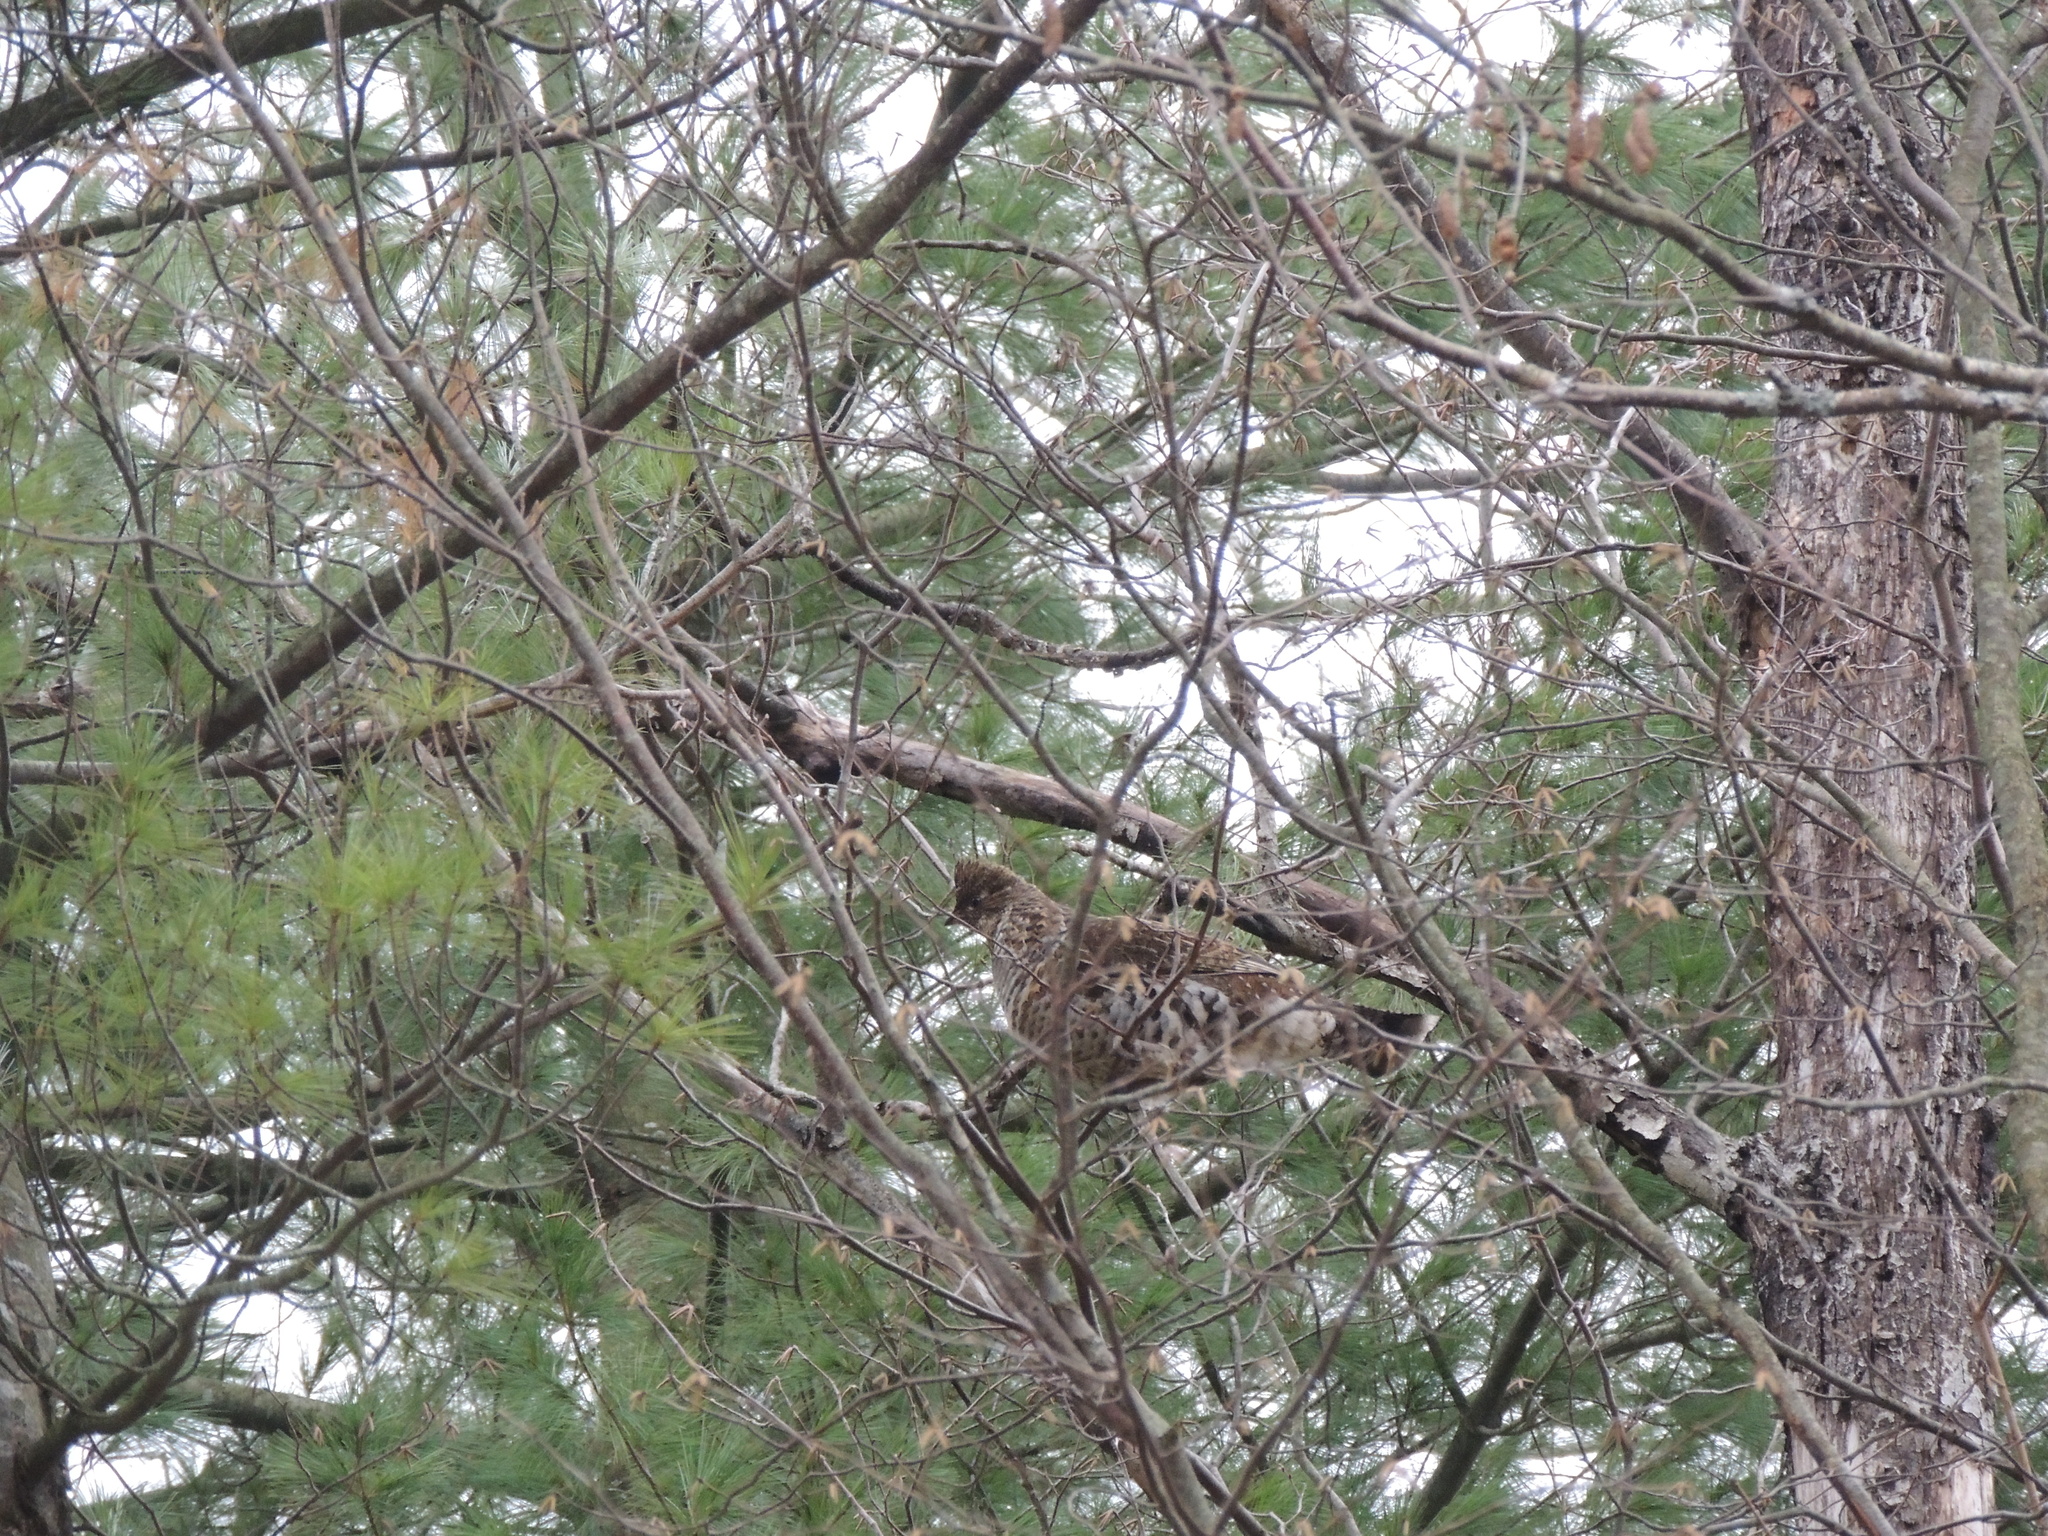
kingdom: Animalia
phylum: Chordata
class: Aves
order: Galliformes
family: Phasianidae
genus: Bonasa
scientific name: Bonasa umbellus
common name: Ruffed grouse
